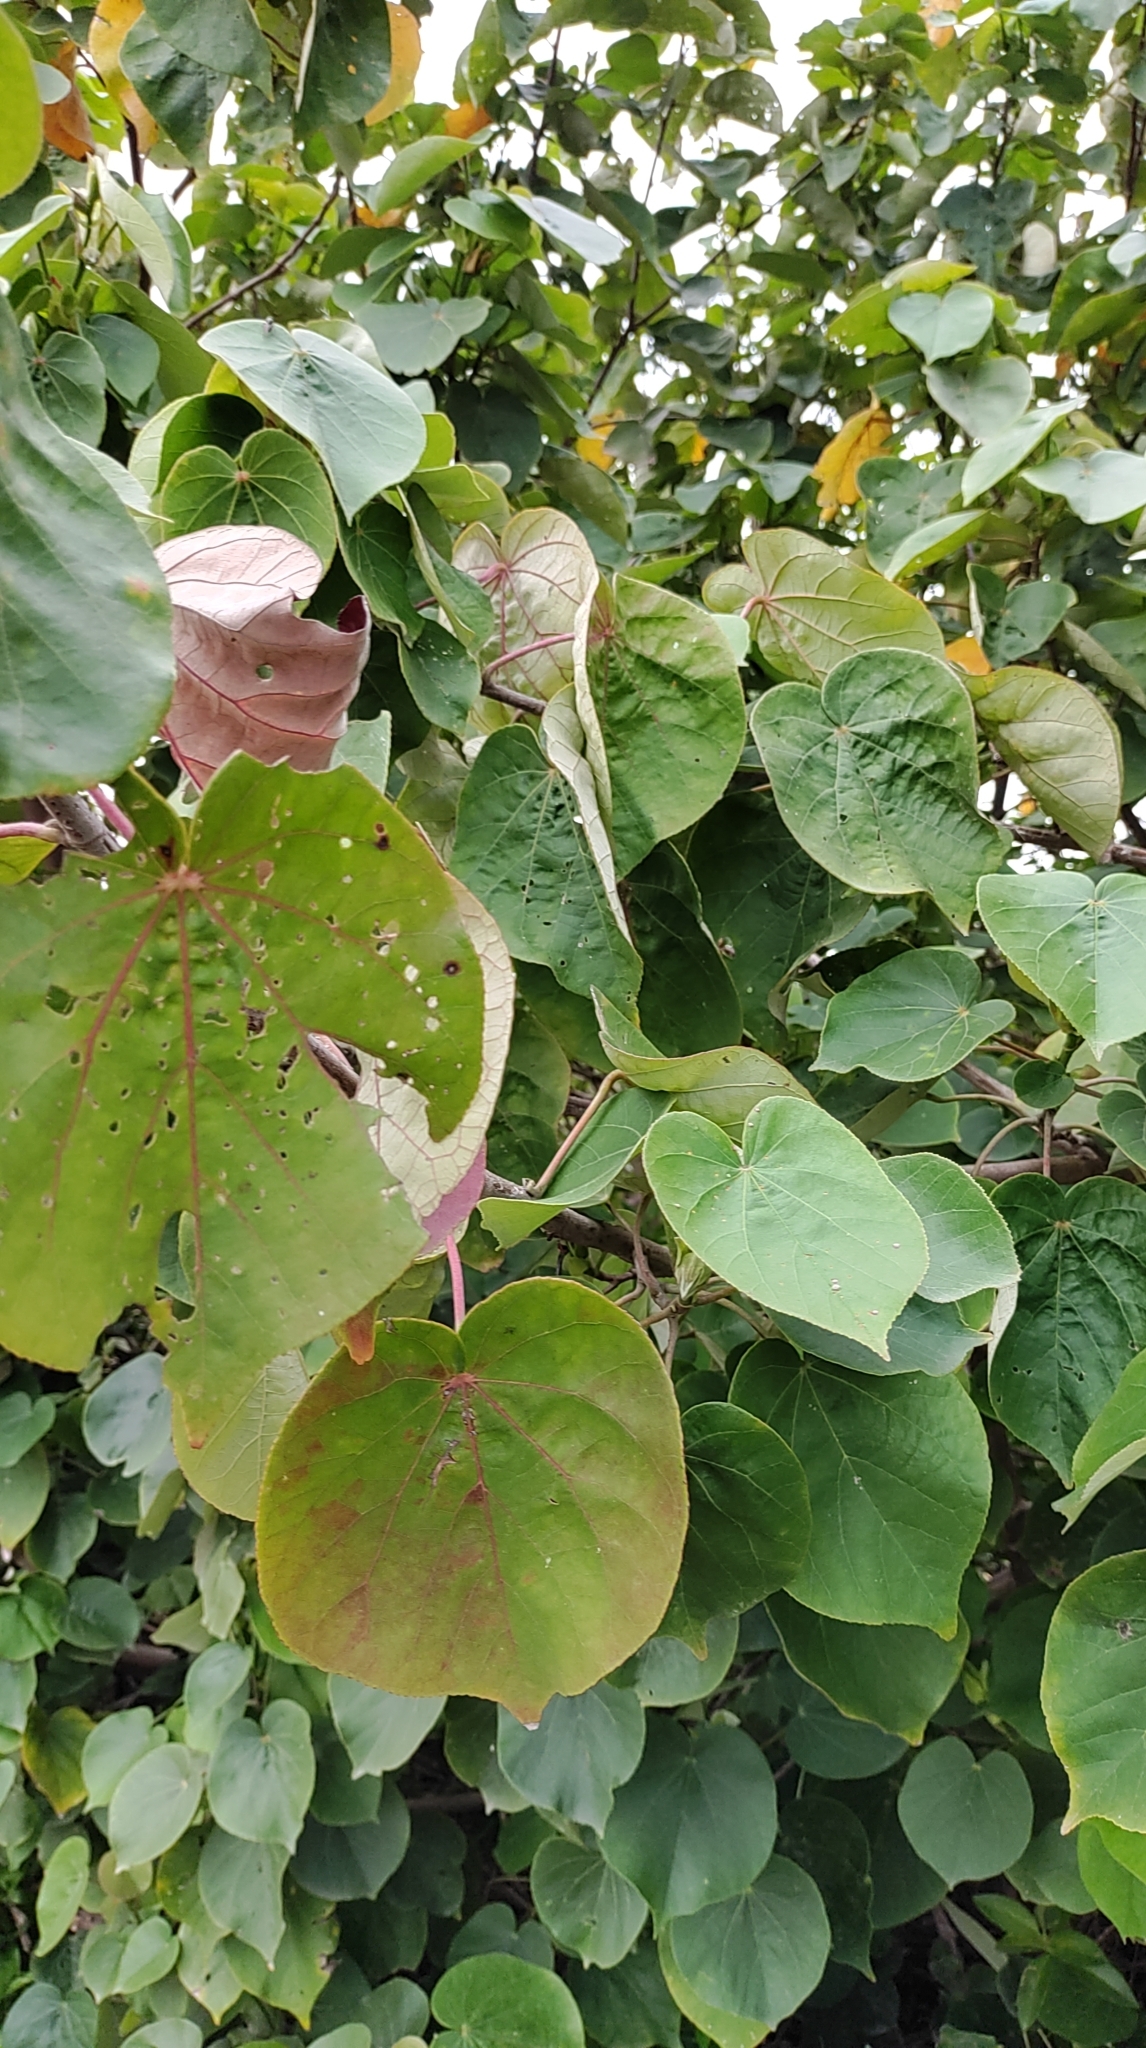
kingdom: Plantae
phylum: Tracheophyta
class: Magnoliopsida
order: Malvales
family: Malvaceae
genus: Talipariti
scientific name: Talipariti tiliaceum
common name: Sea hibiscus
